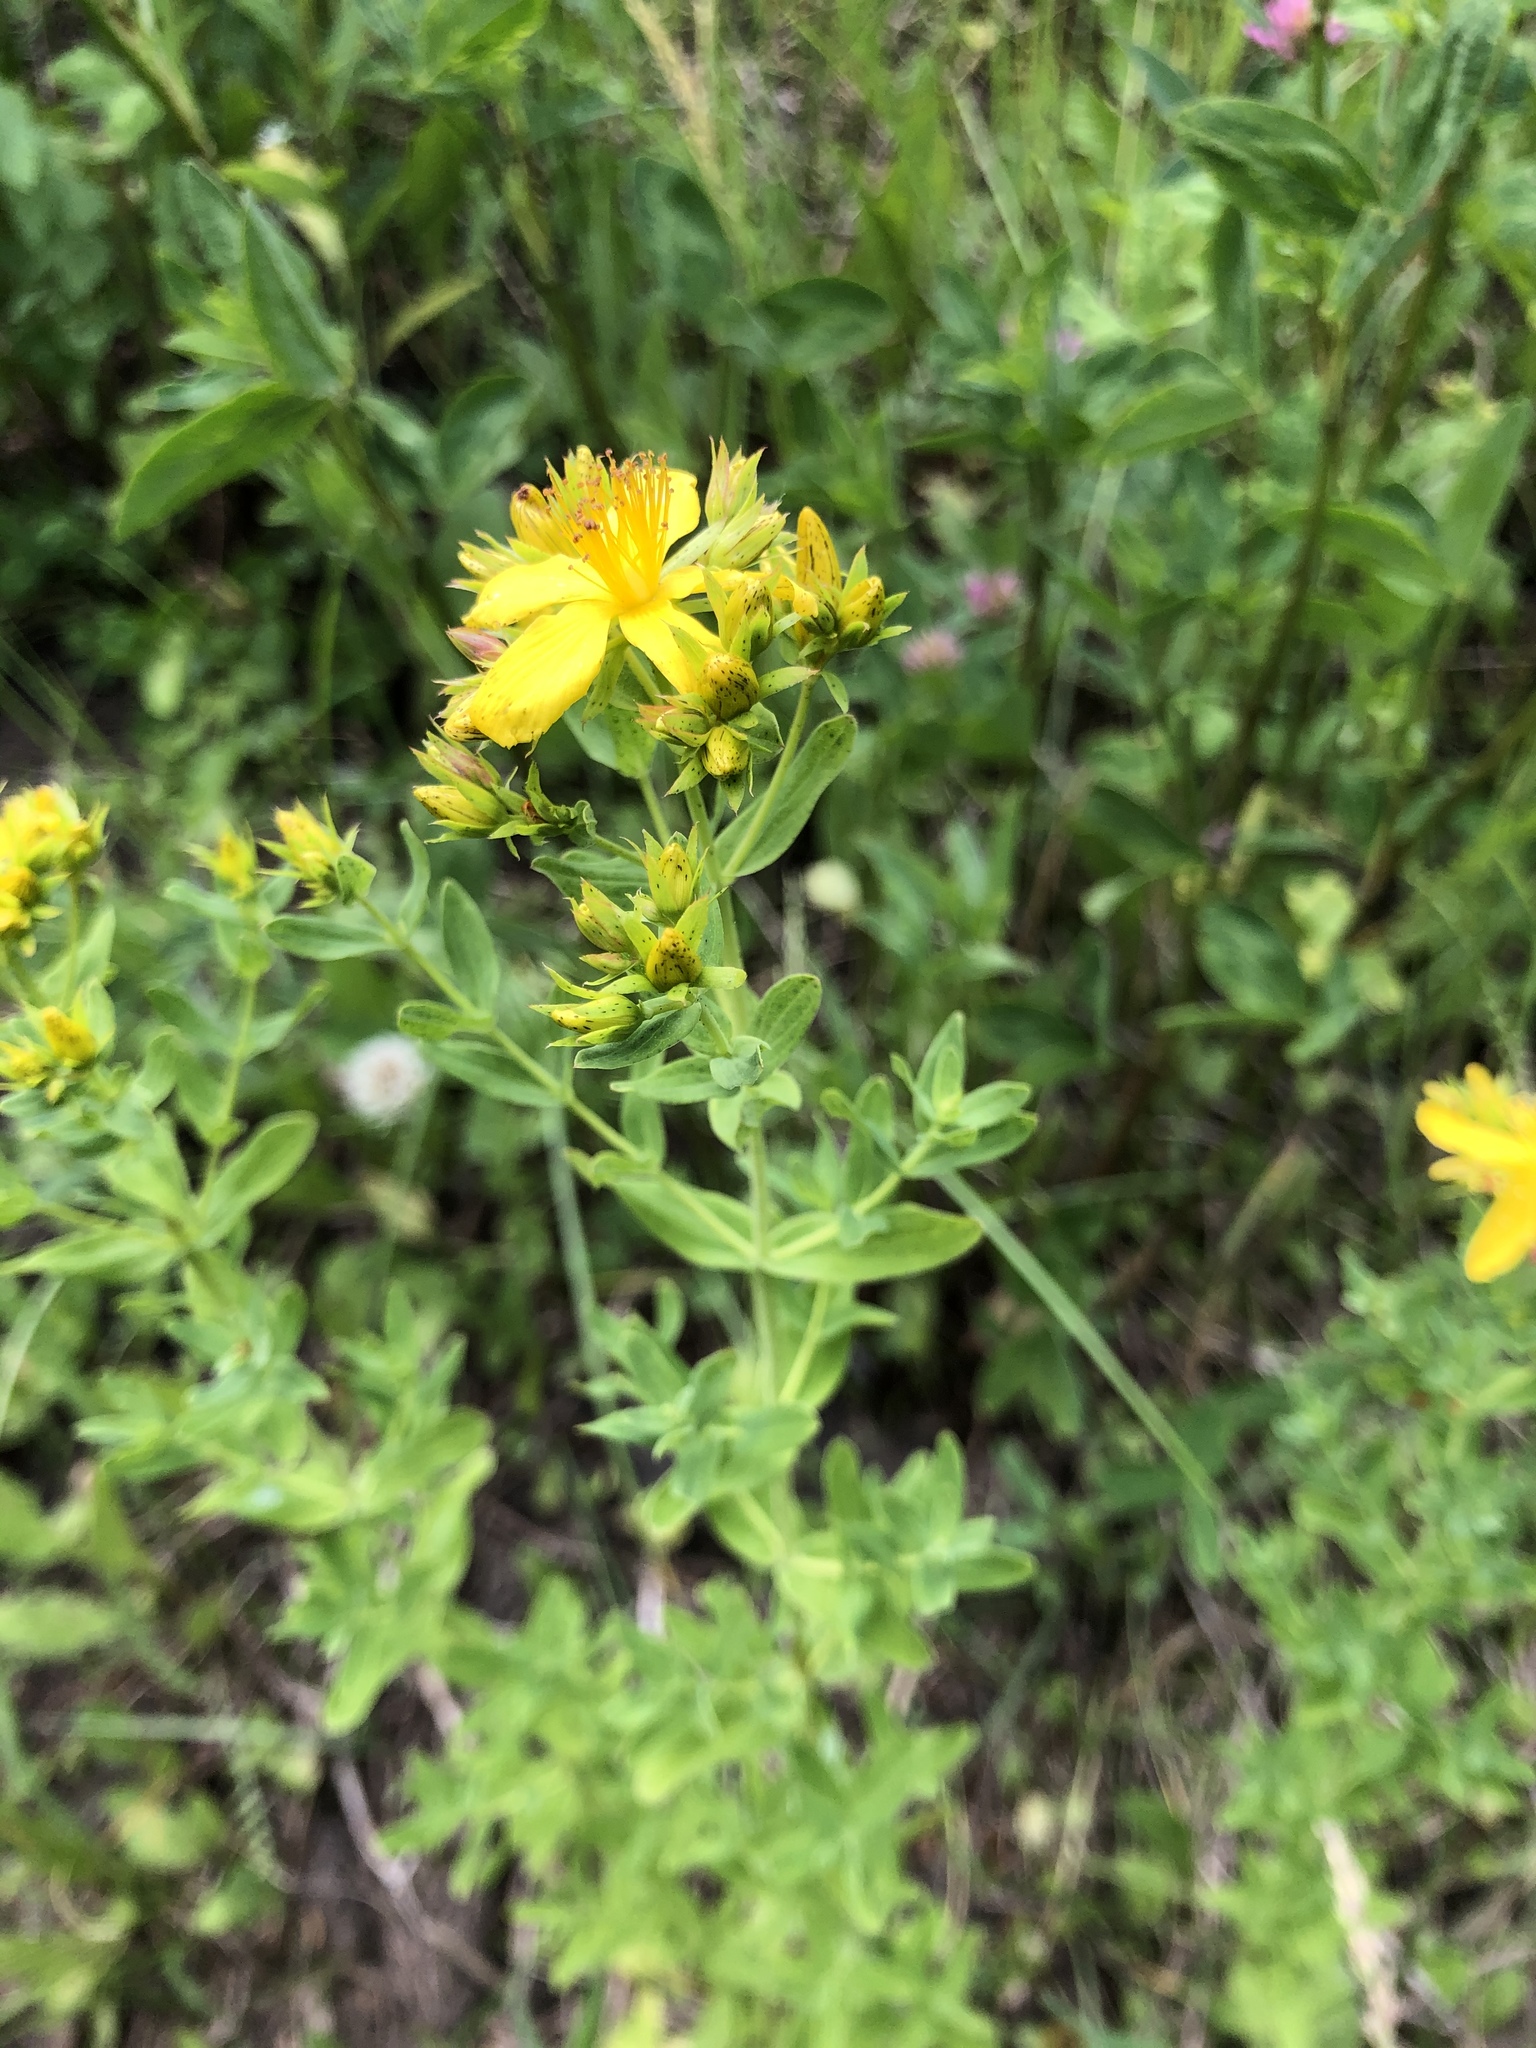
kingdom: Plantae
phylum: Tracheophyta
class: Magnoliopsida
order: Malpighiales
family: Hypericaceae
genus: Hypericum
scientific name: Hypericum perforatum
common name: Common st. johnswort
